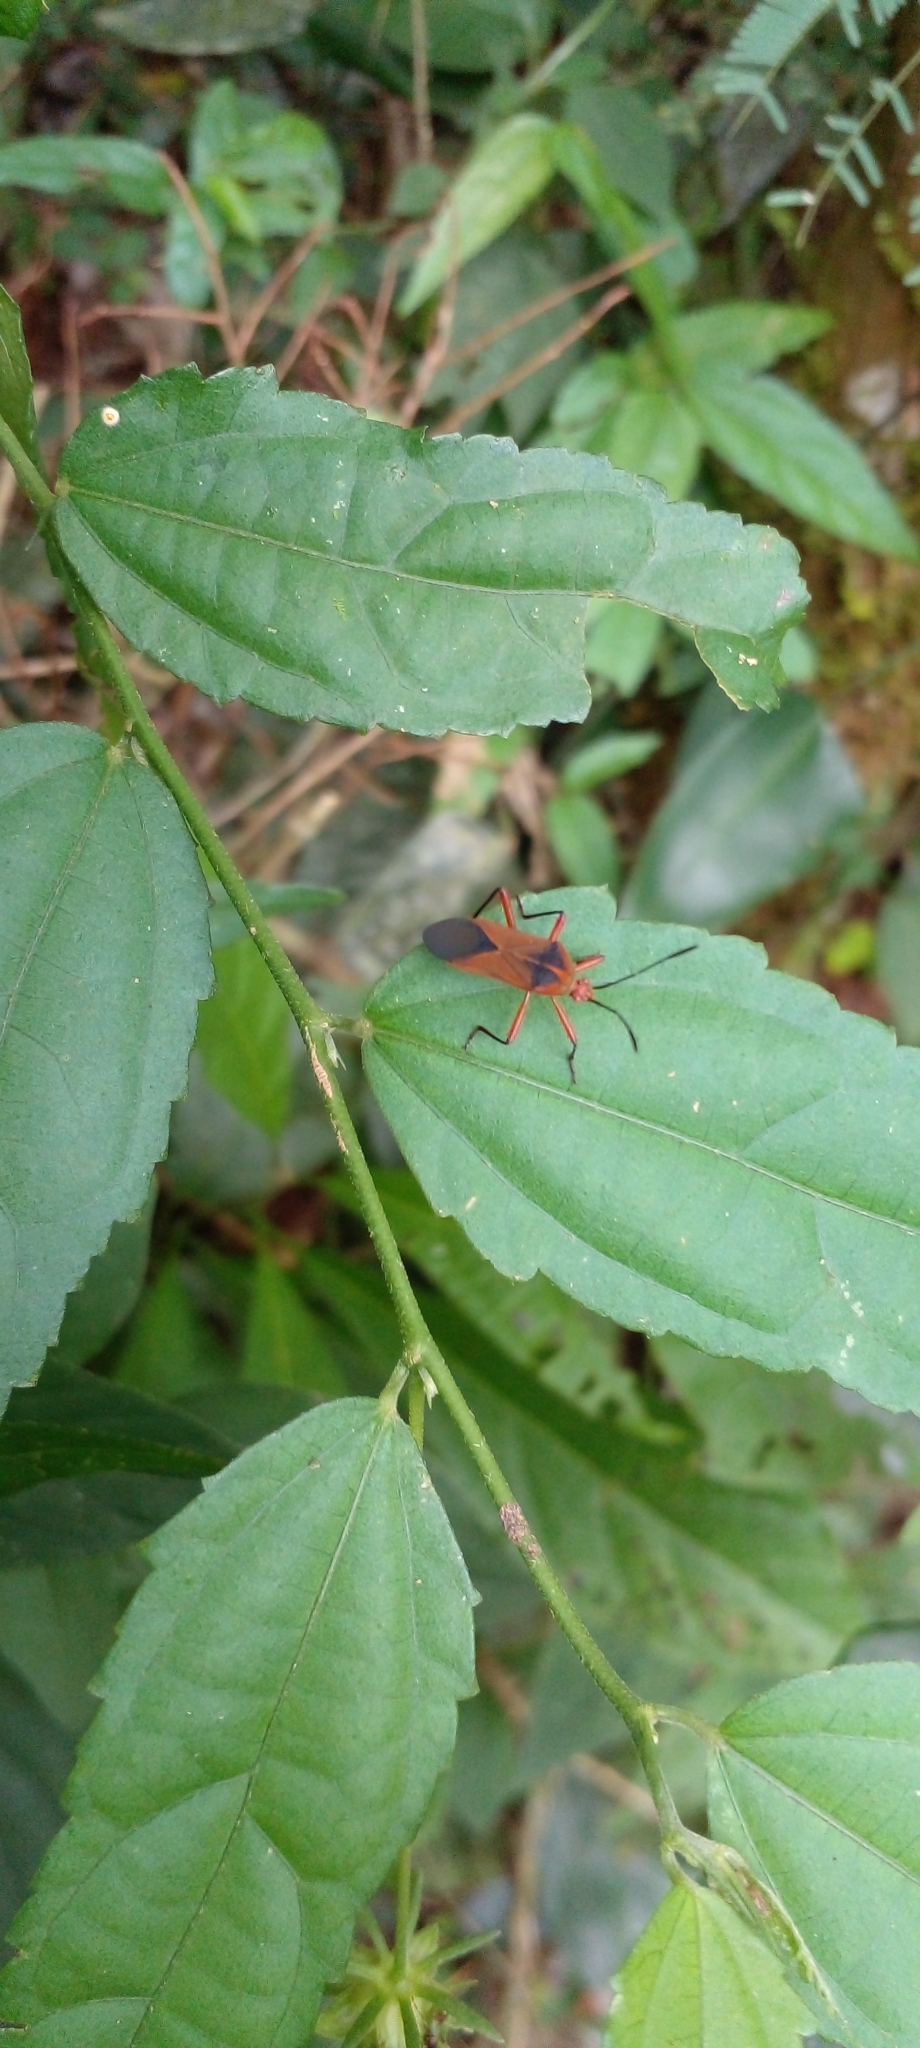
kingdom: Animalia
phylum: Arthropoda
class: Insecta
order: Hemiptera
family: Coreidae
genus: Hypselonotus
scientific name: Hypselonotus bitrianguliger
